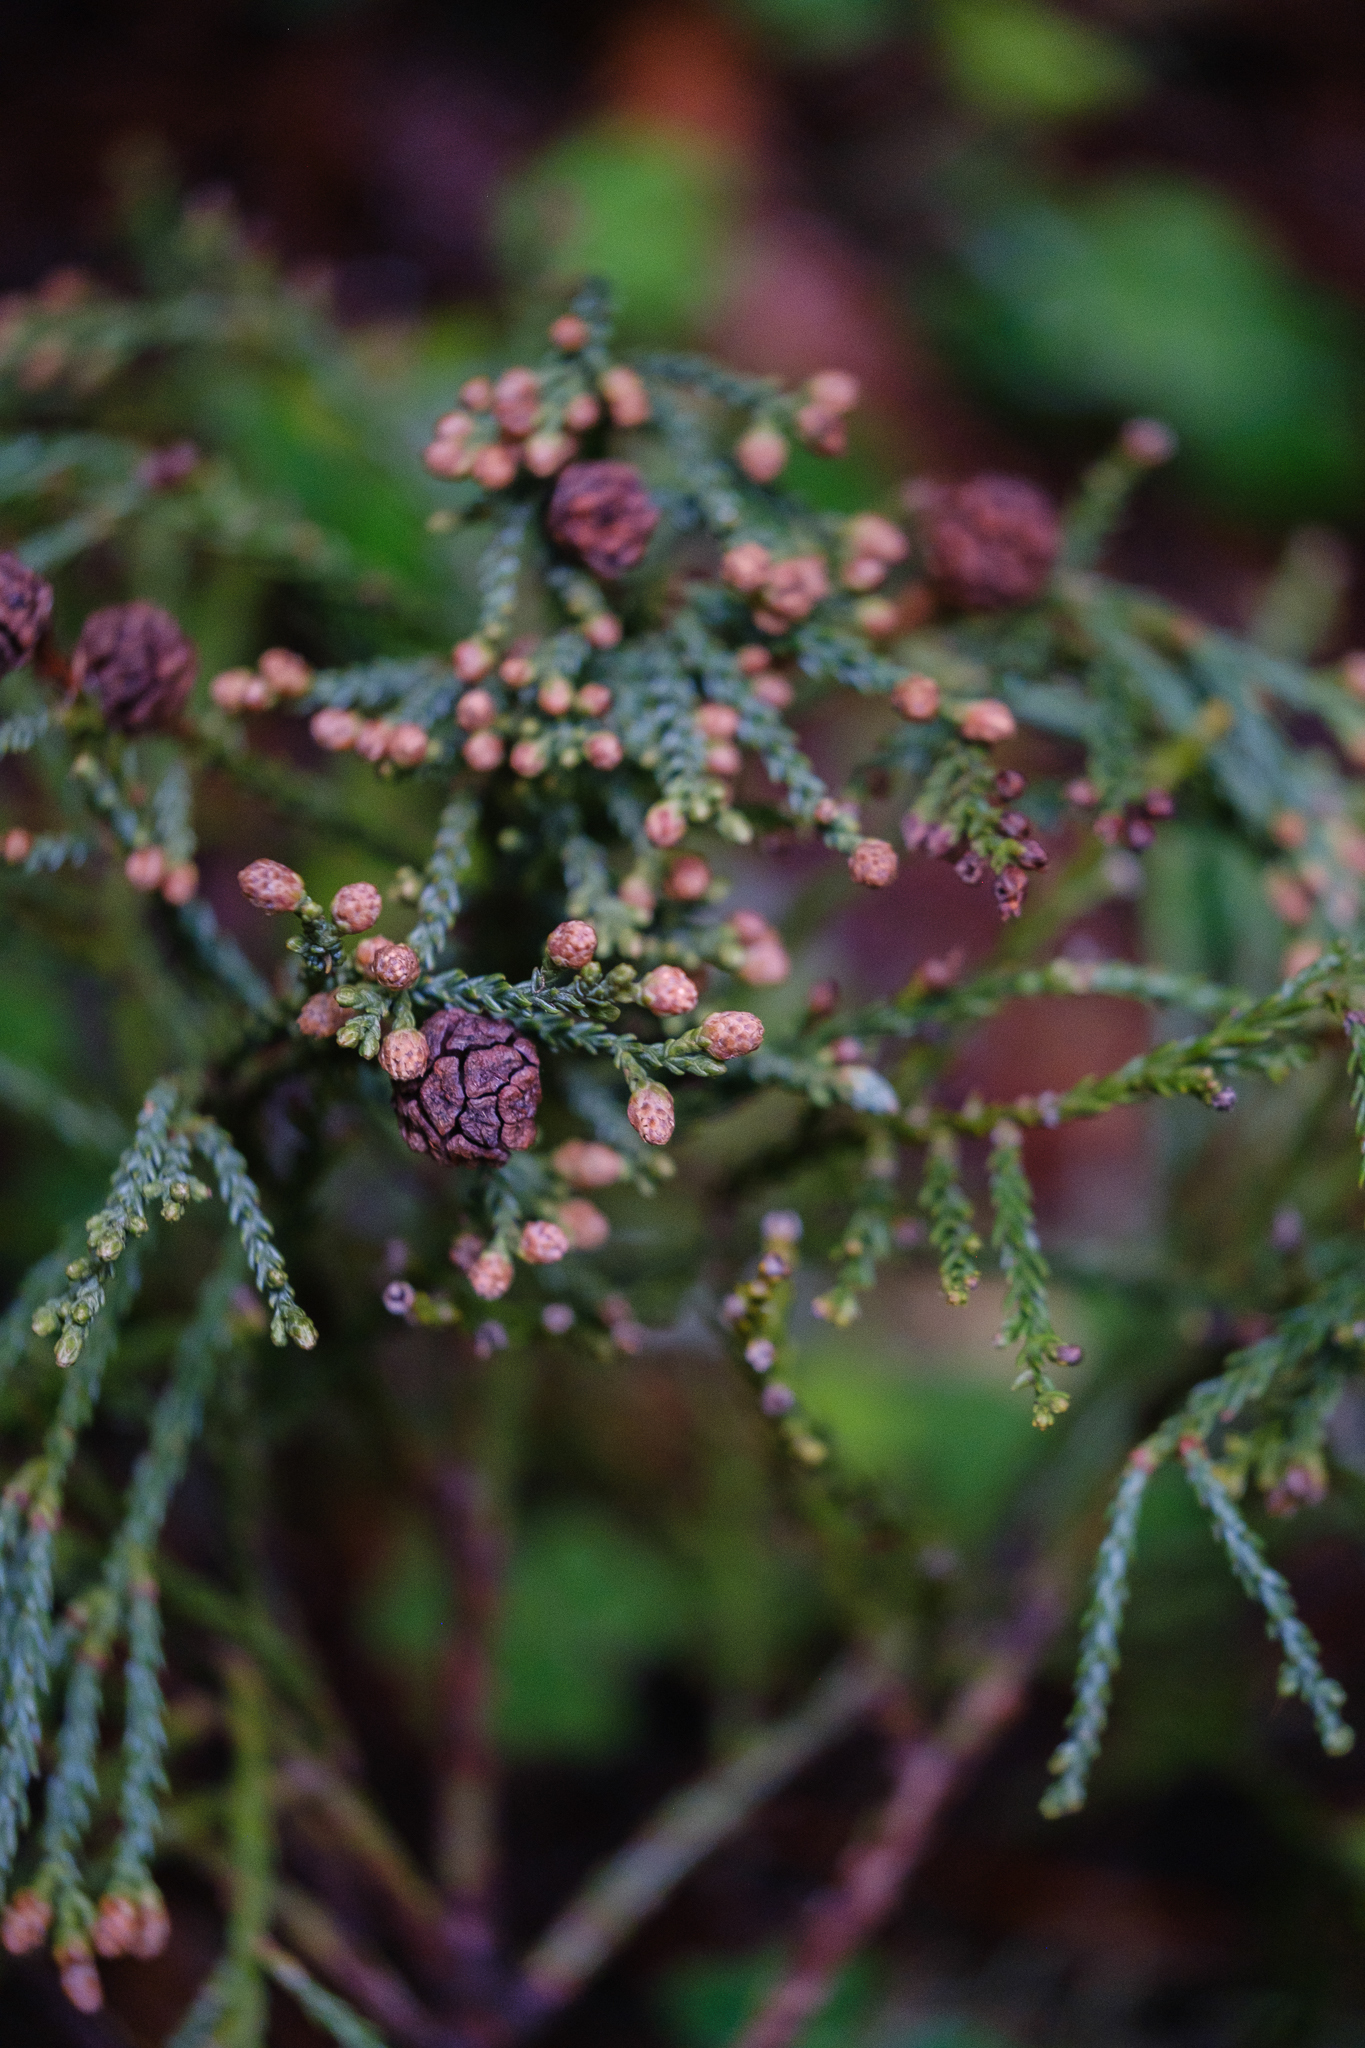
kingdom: Plantae
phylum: Tracheophyta
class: Pinopsida
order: Pinales
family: Cupressaceae
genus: Sequoia
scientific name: Sequoia sempervirens
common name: Coast redwood
